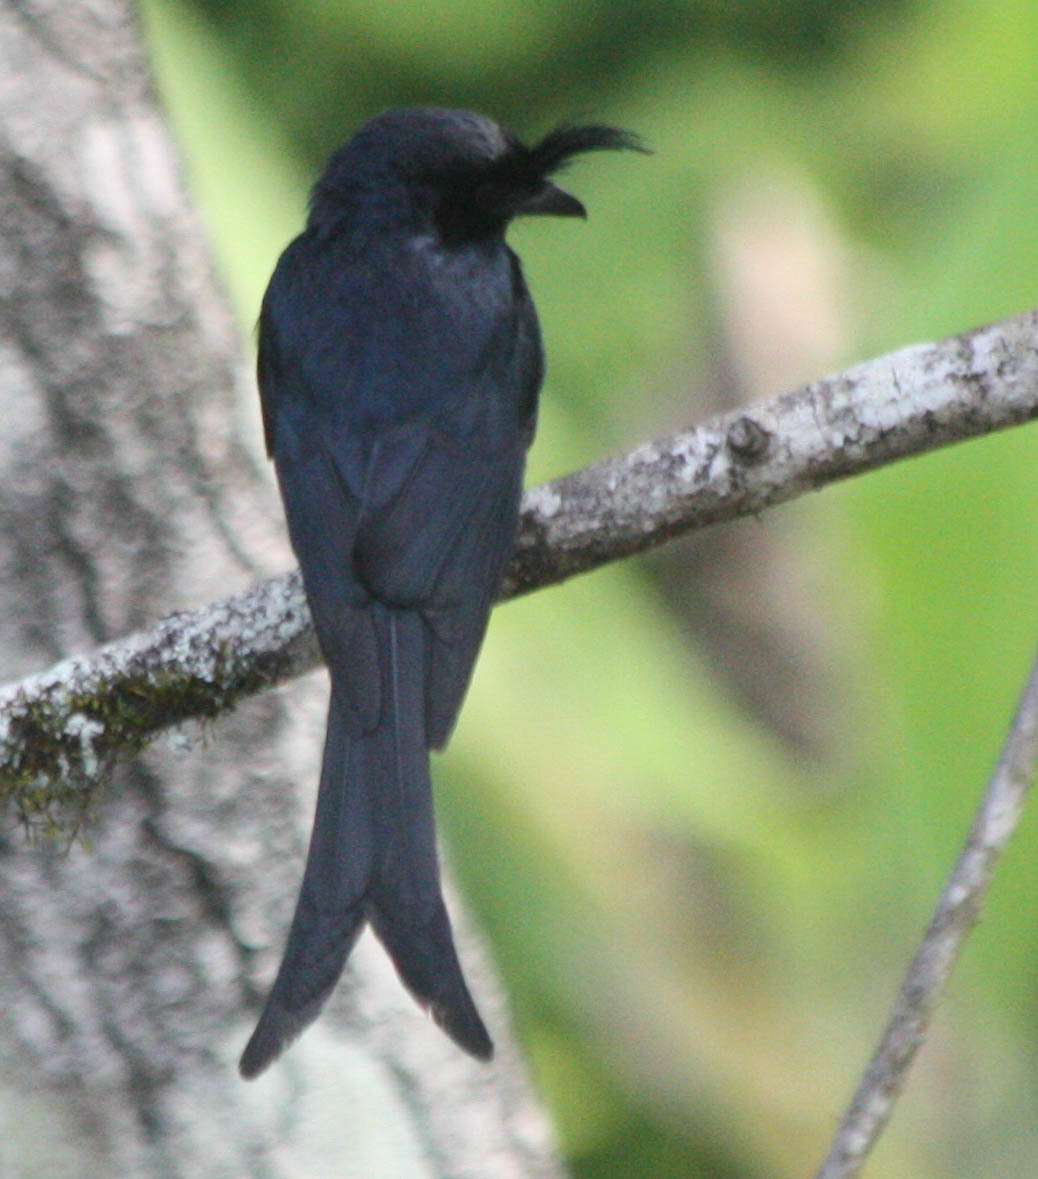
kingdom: Animalia
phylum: Chordata
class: Aves
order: Passeriformes
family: Dicruridae
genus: Dicrurus
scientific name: Dicrurus forficatus
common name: Crested drongo
